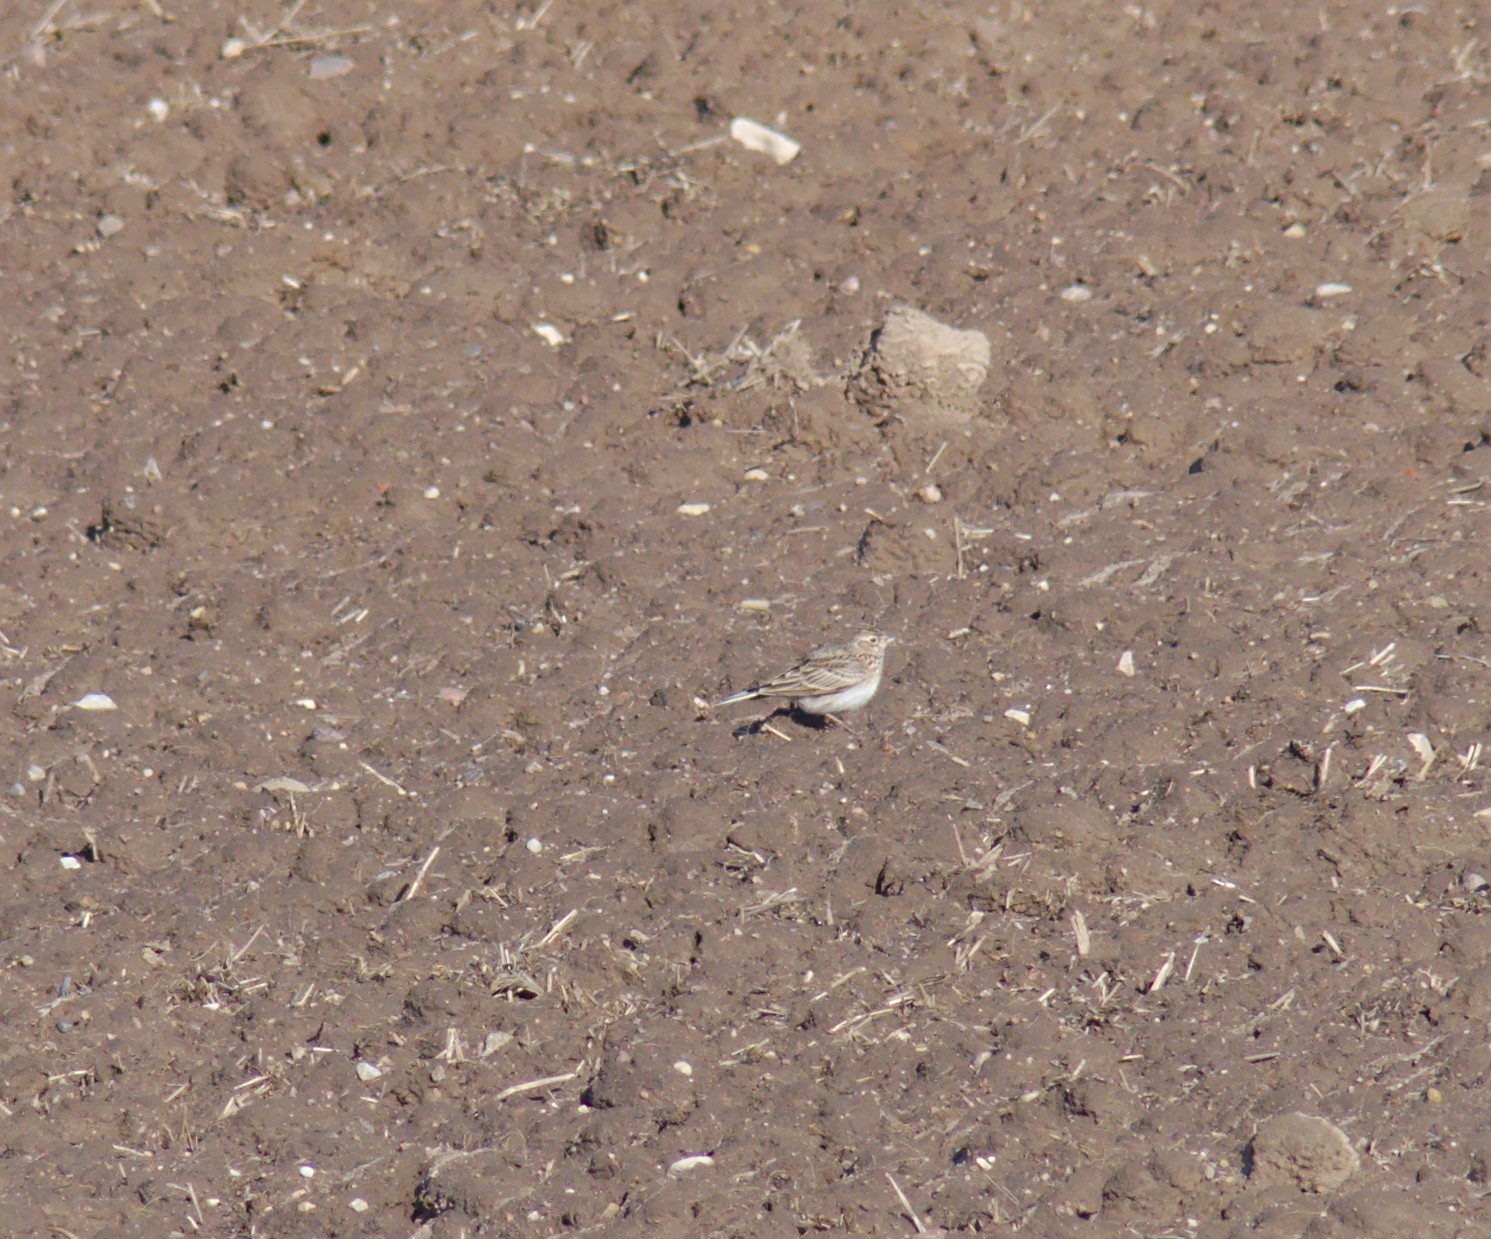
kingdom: Animalia
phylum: Chordata
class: Aves
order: Passeriformes
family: Alaudidae
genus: Alauda
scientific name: Alauda arvensis
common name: Eurasian skylark
